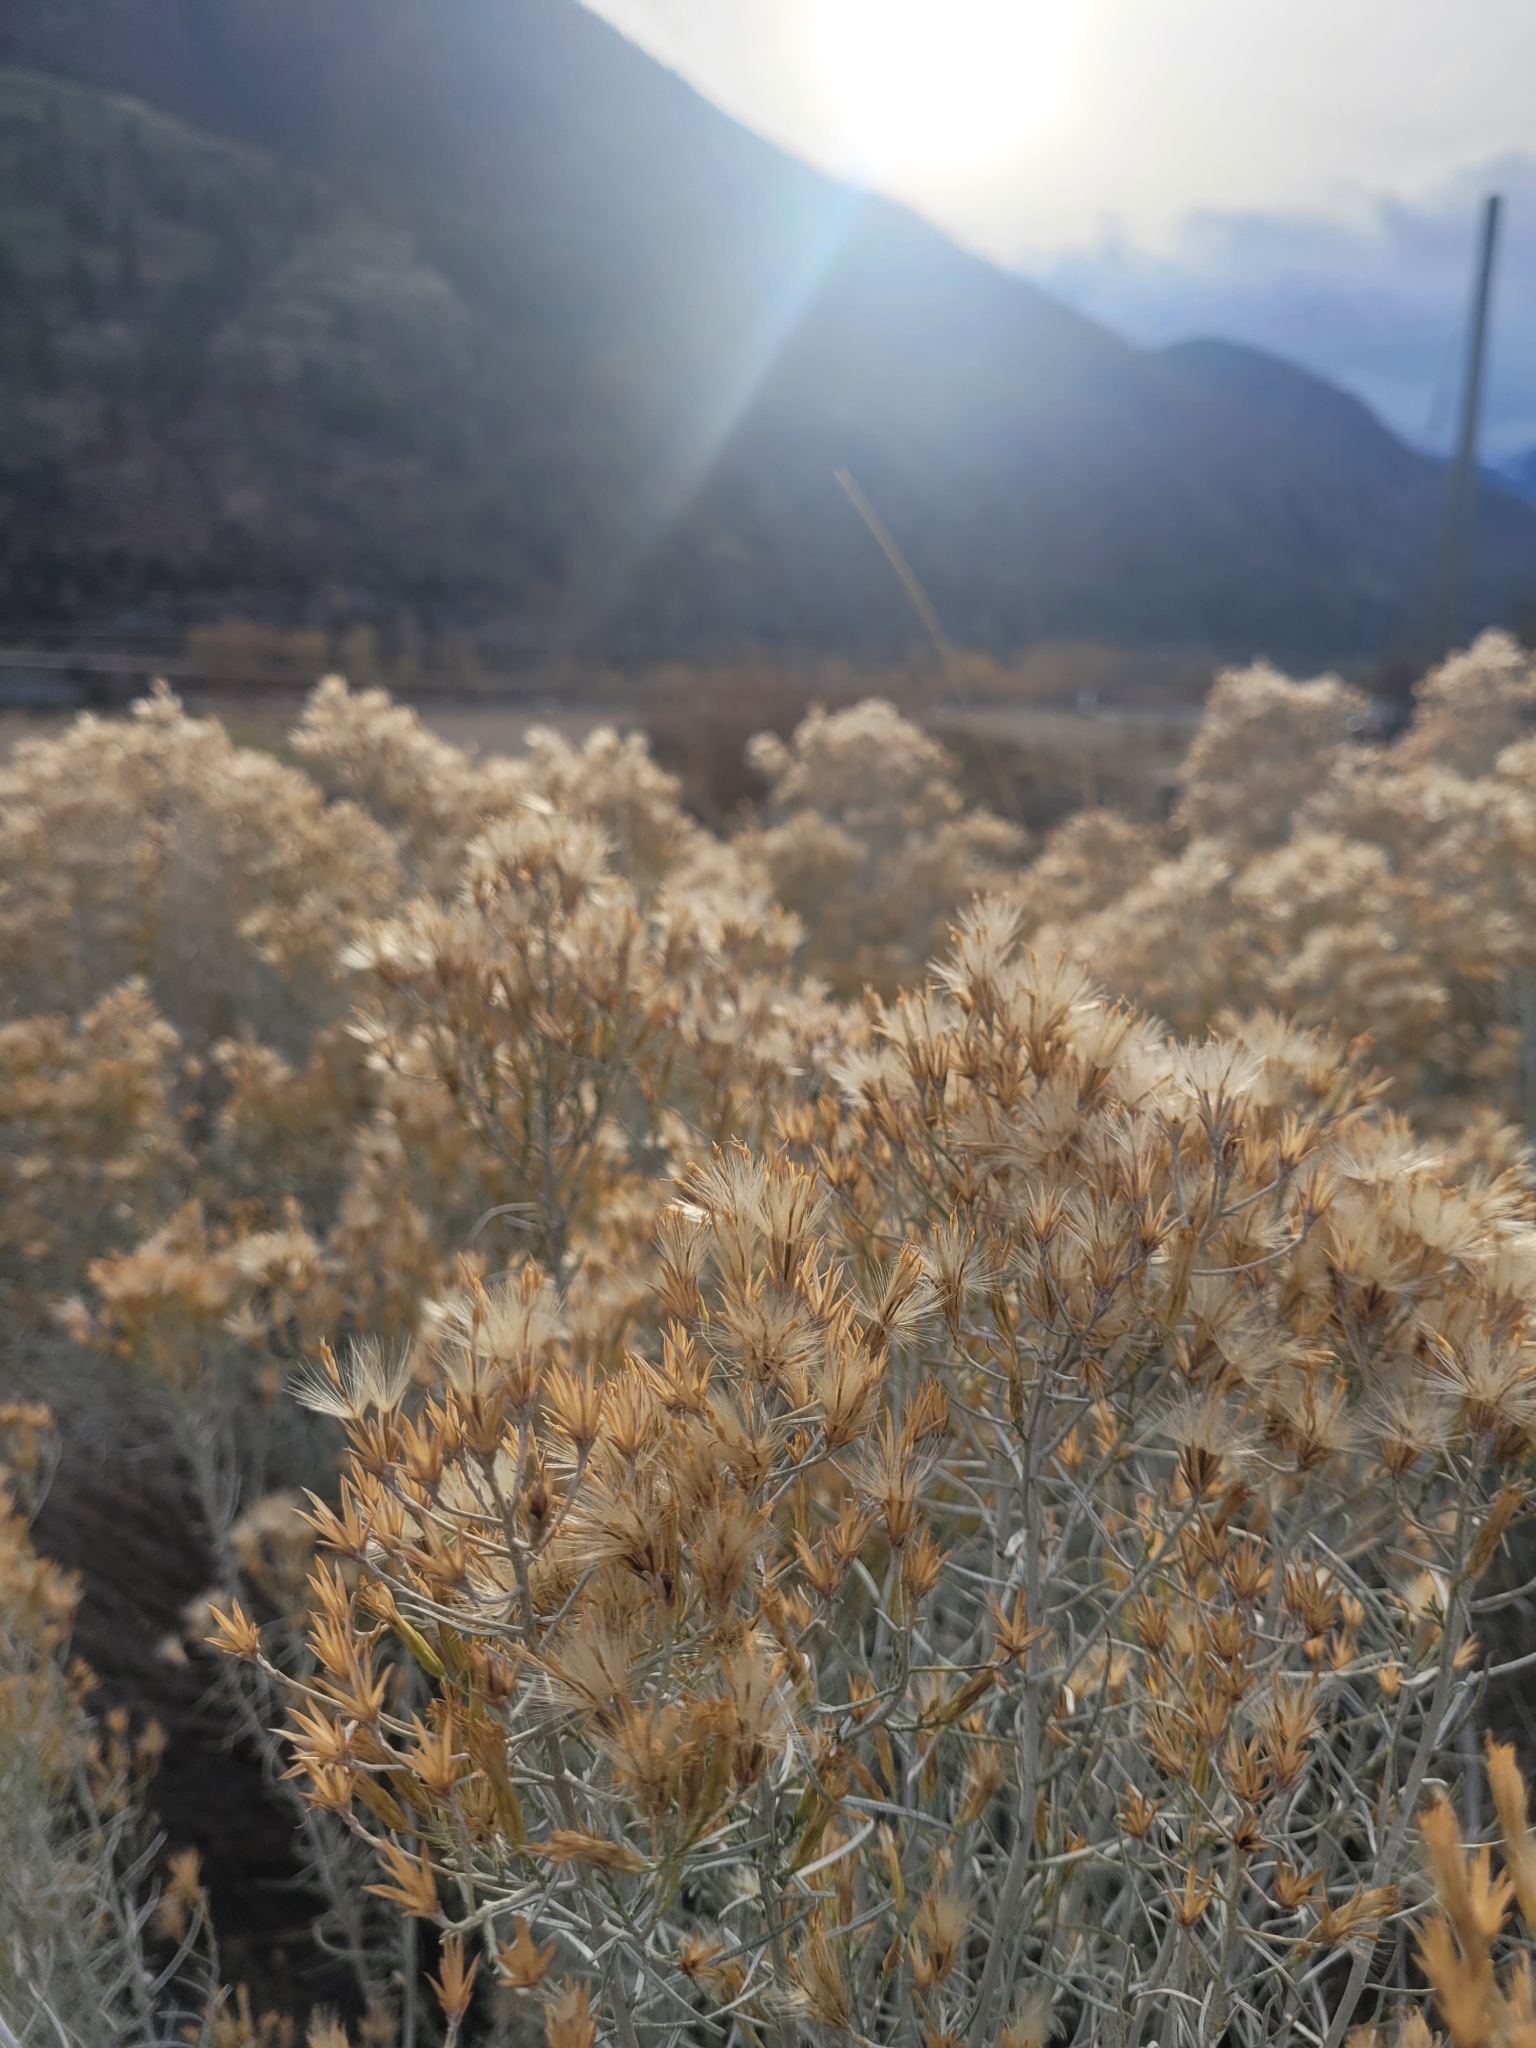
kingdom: Plantae
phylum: Tracheophyta
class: Magnoliopsida
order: Asterales
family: Asteraceae
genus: Ericameria
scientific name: Ericameria nauseosa
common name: Rubber rabbitbrush
